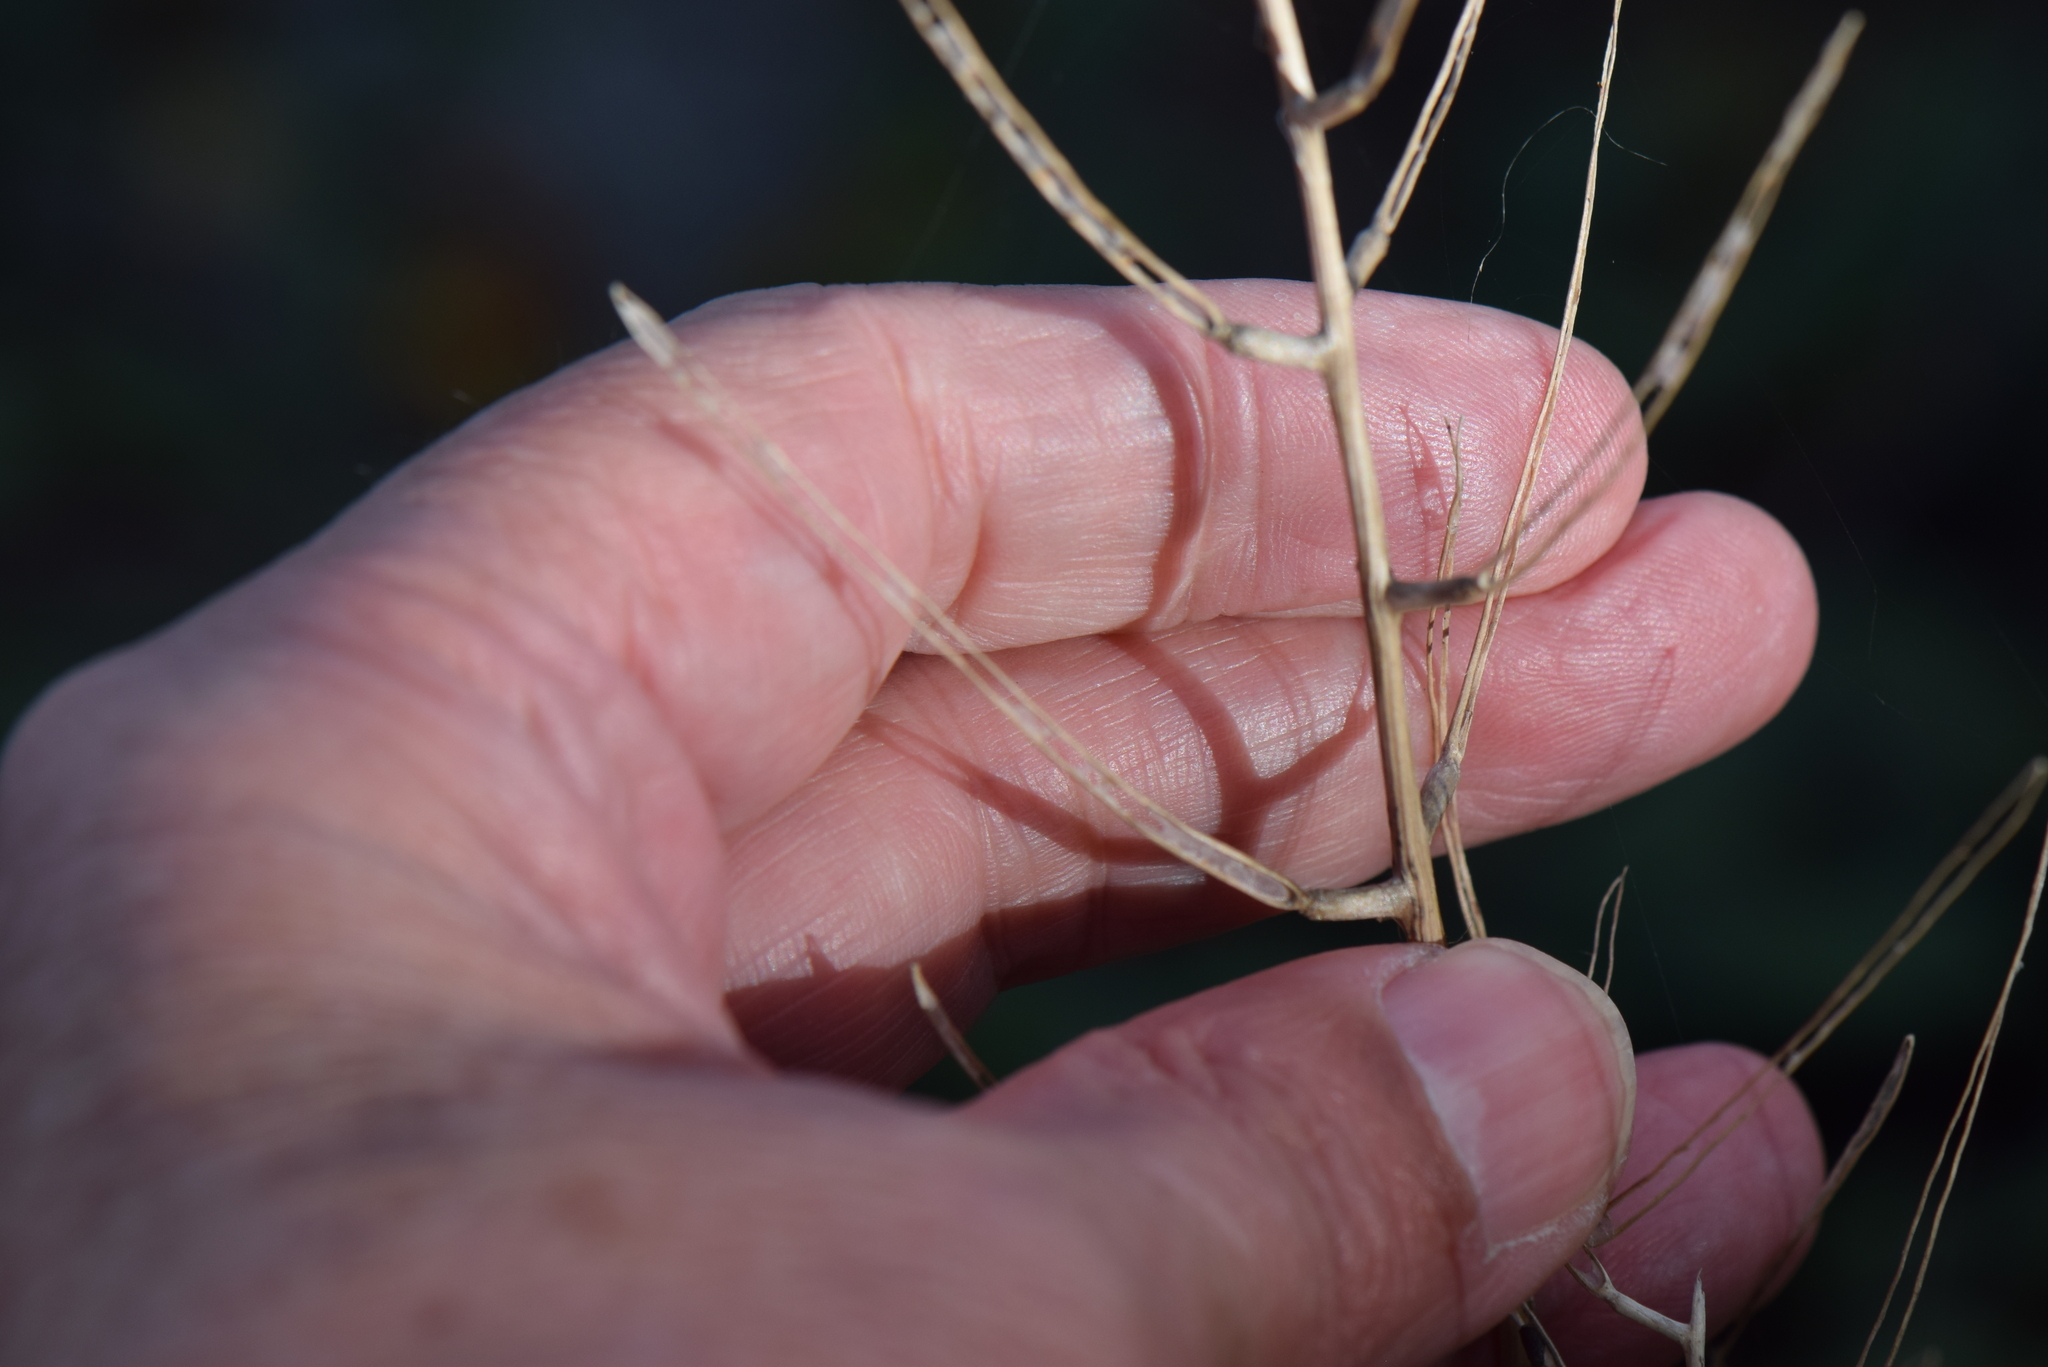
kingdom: Plantae
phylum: Tracheophyta
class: Magnoliopsida
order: Brassicales
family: Brassicaceae
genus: Alliaria
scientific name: Alliaria petiolata
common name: Garlic mustard
